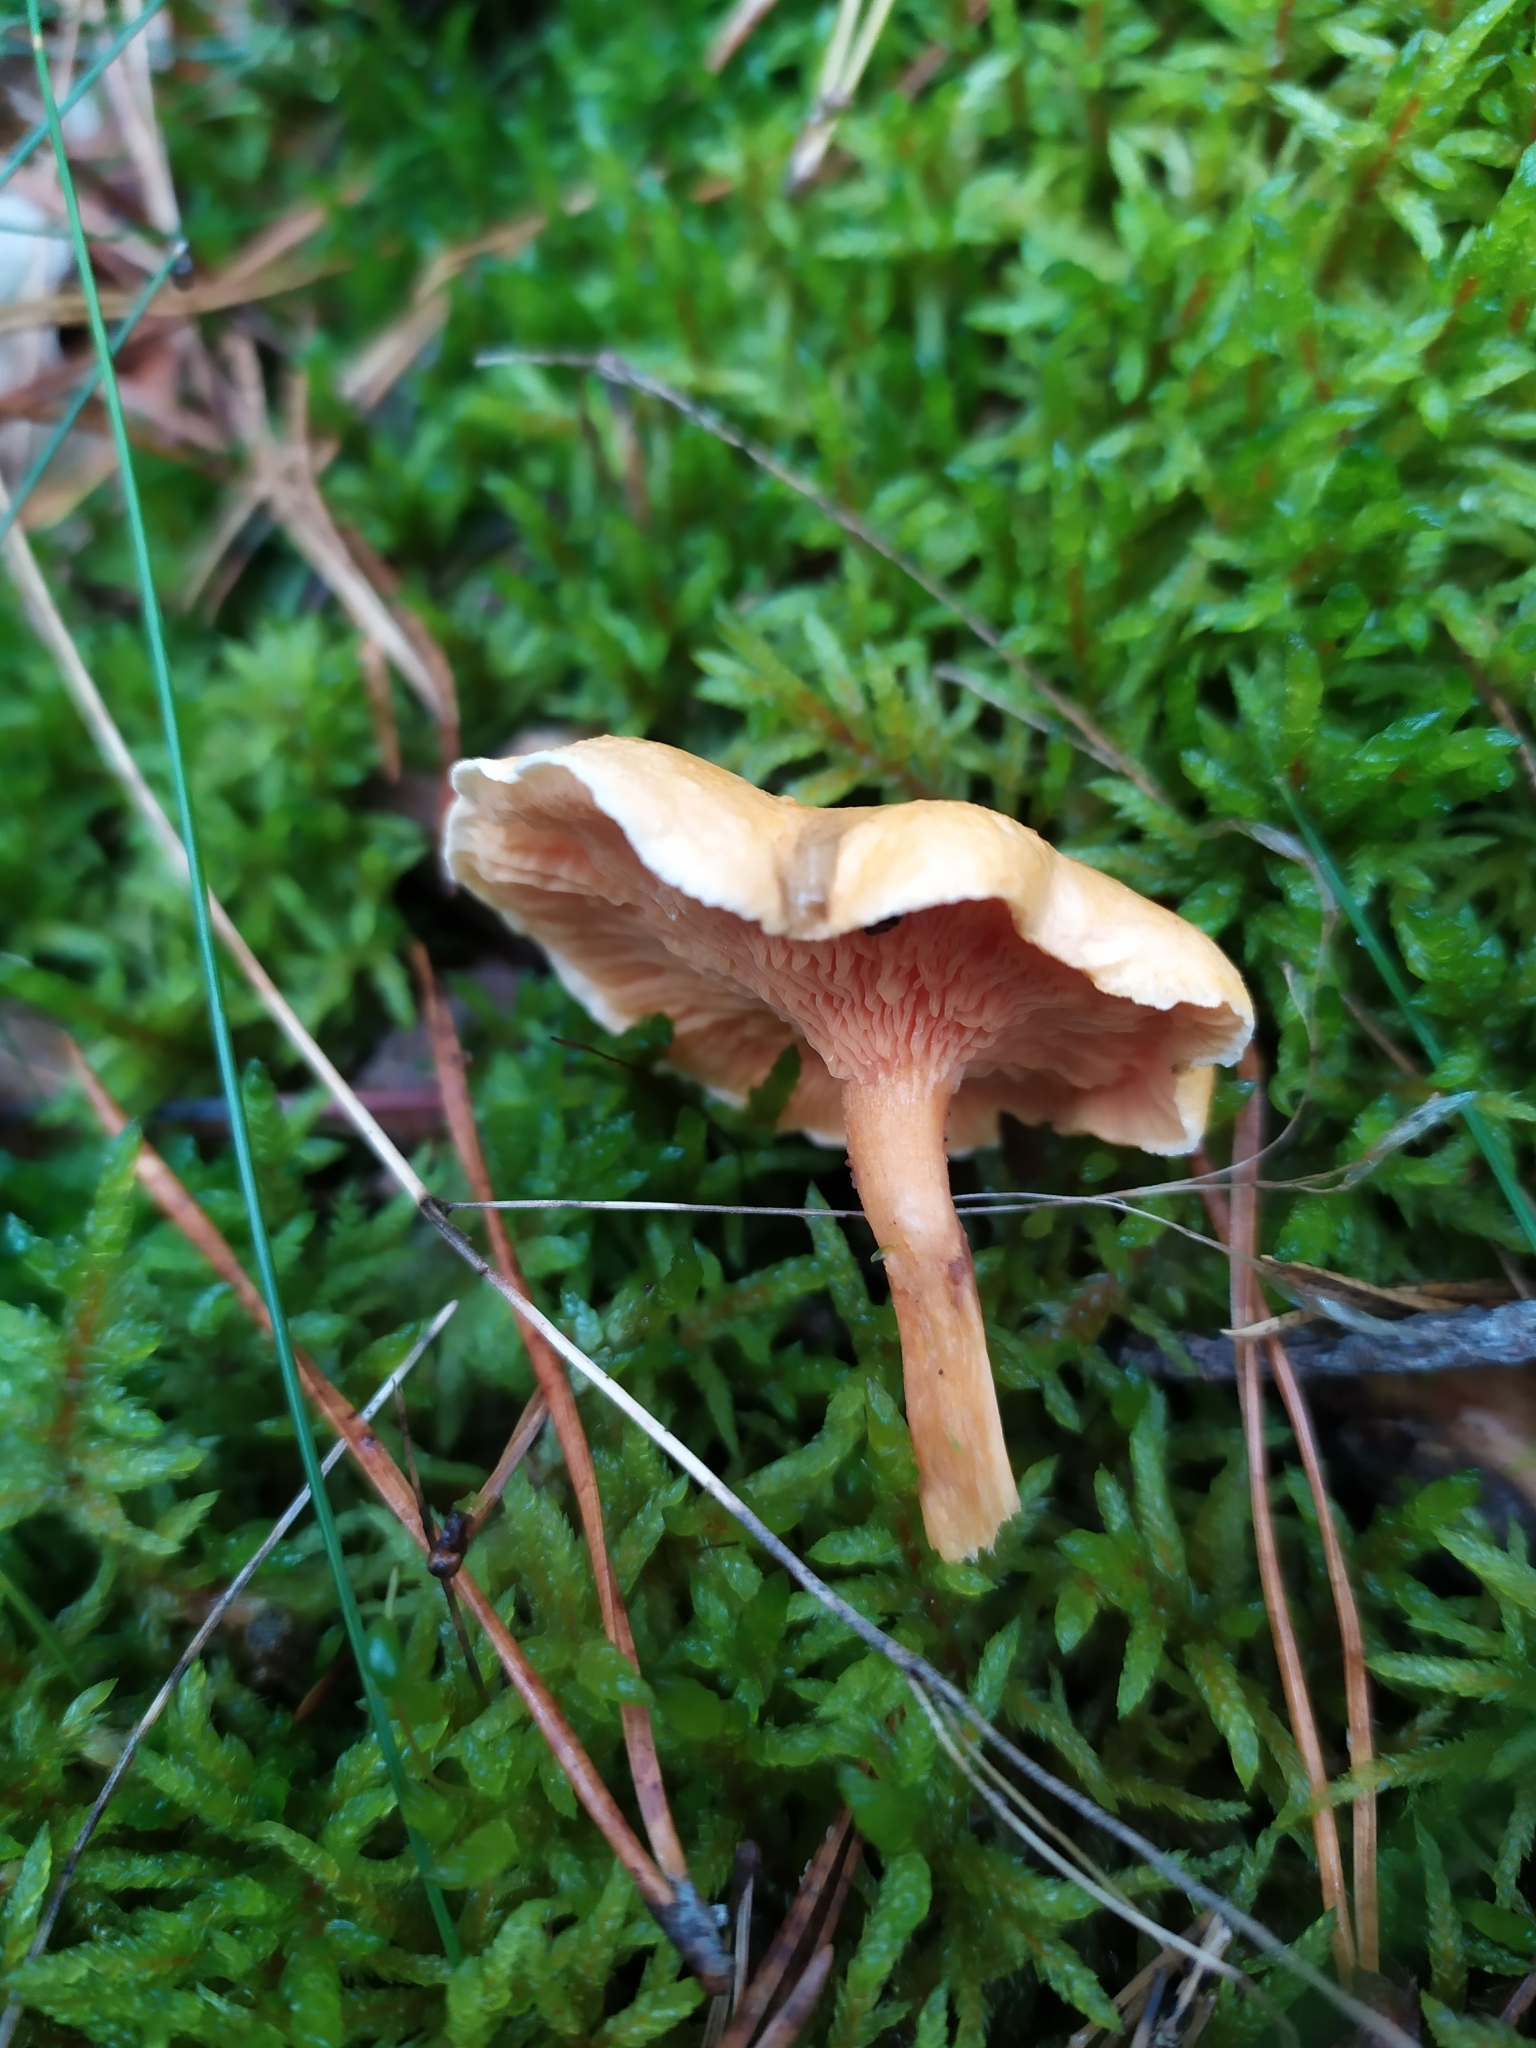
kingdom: Fungi
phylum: Basidiomycota
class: Agaricomycetes
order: Boletales
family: Hygrophoropsidaceae
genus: Hygrophoropsis
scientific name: Hygrophoropsis aurantiaca
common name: False chanterelle
